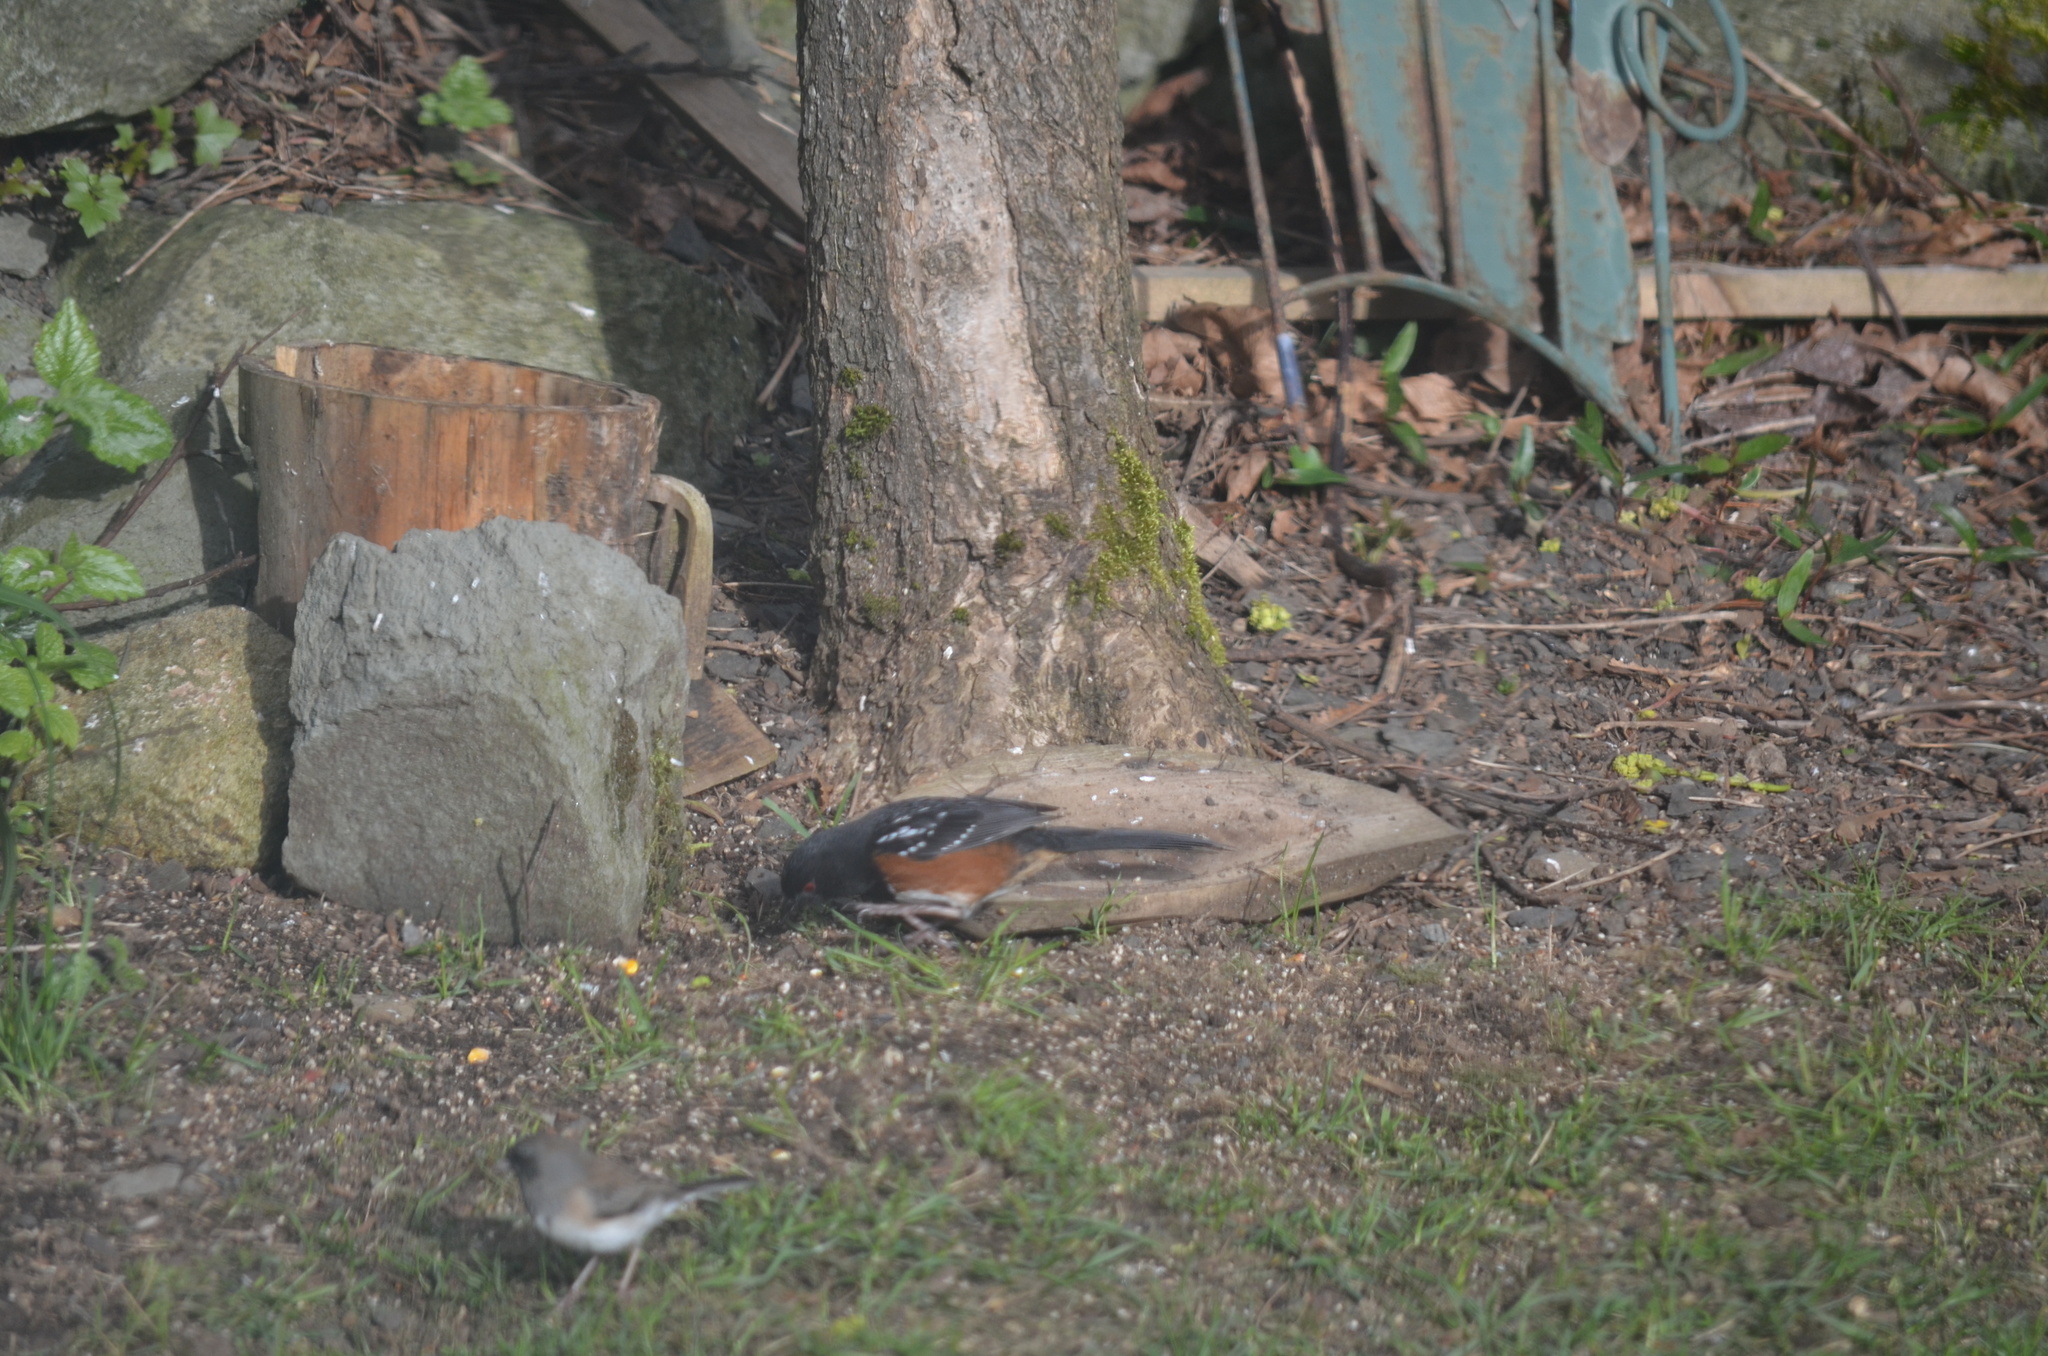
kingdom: Animalia
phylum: Chordata
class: Aves
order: Passeriformes
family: Passerellidae
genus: Pipilo
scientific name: Pipilo maculatus
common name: Spotted towhee
